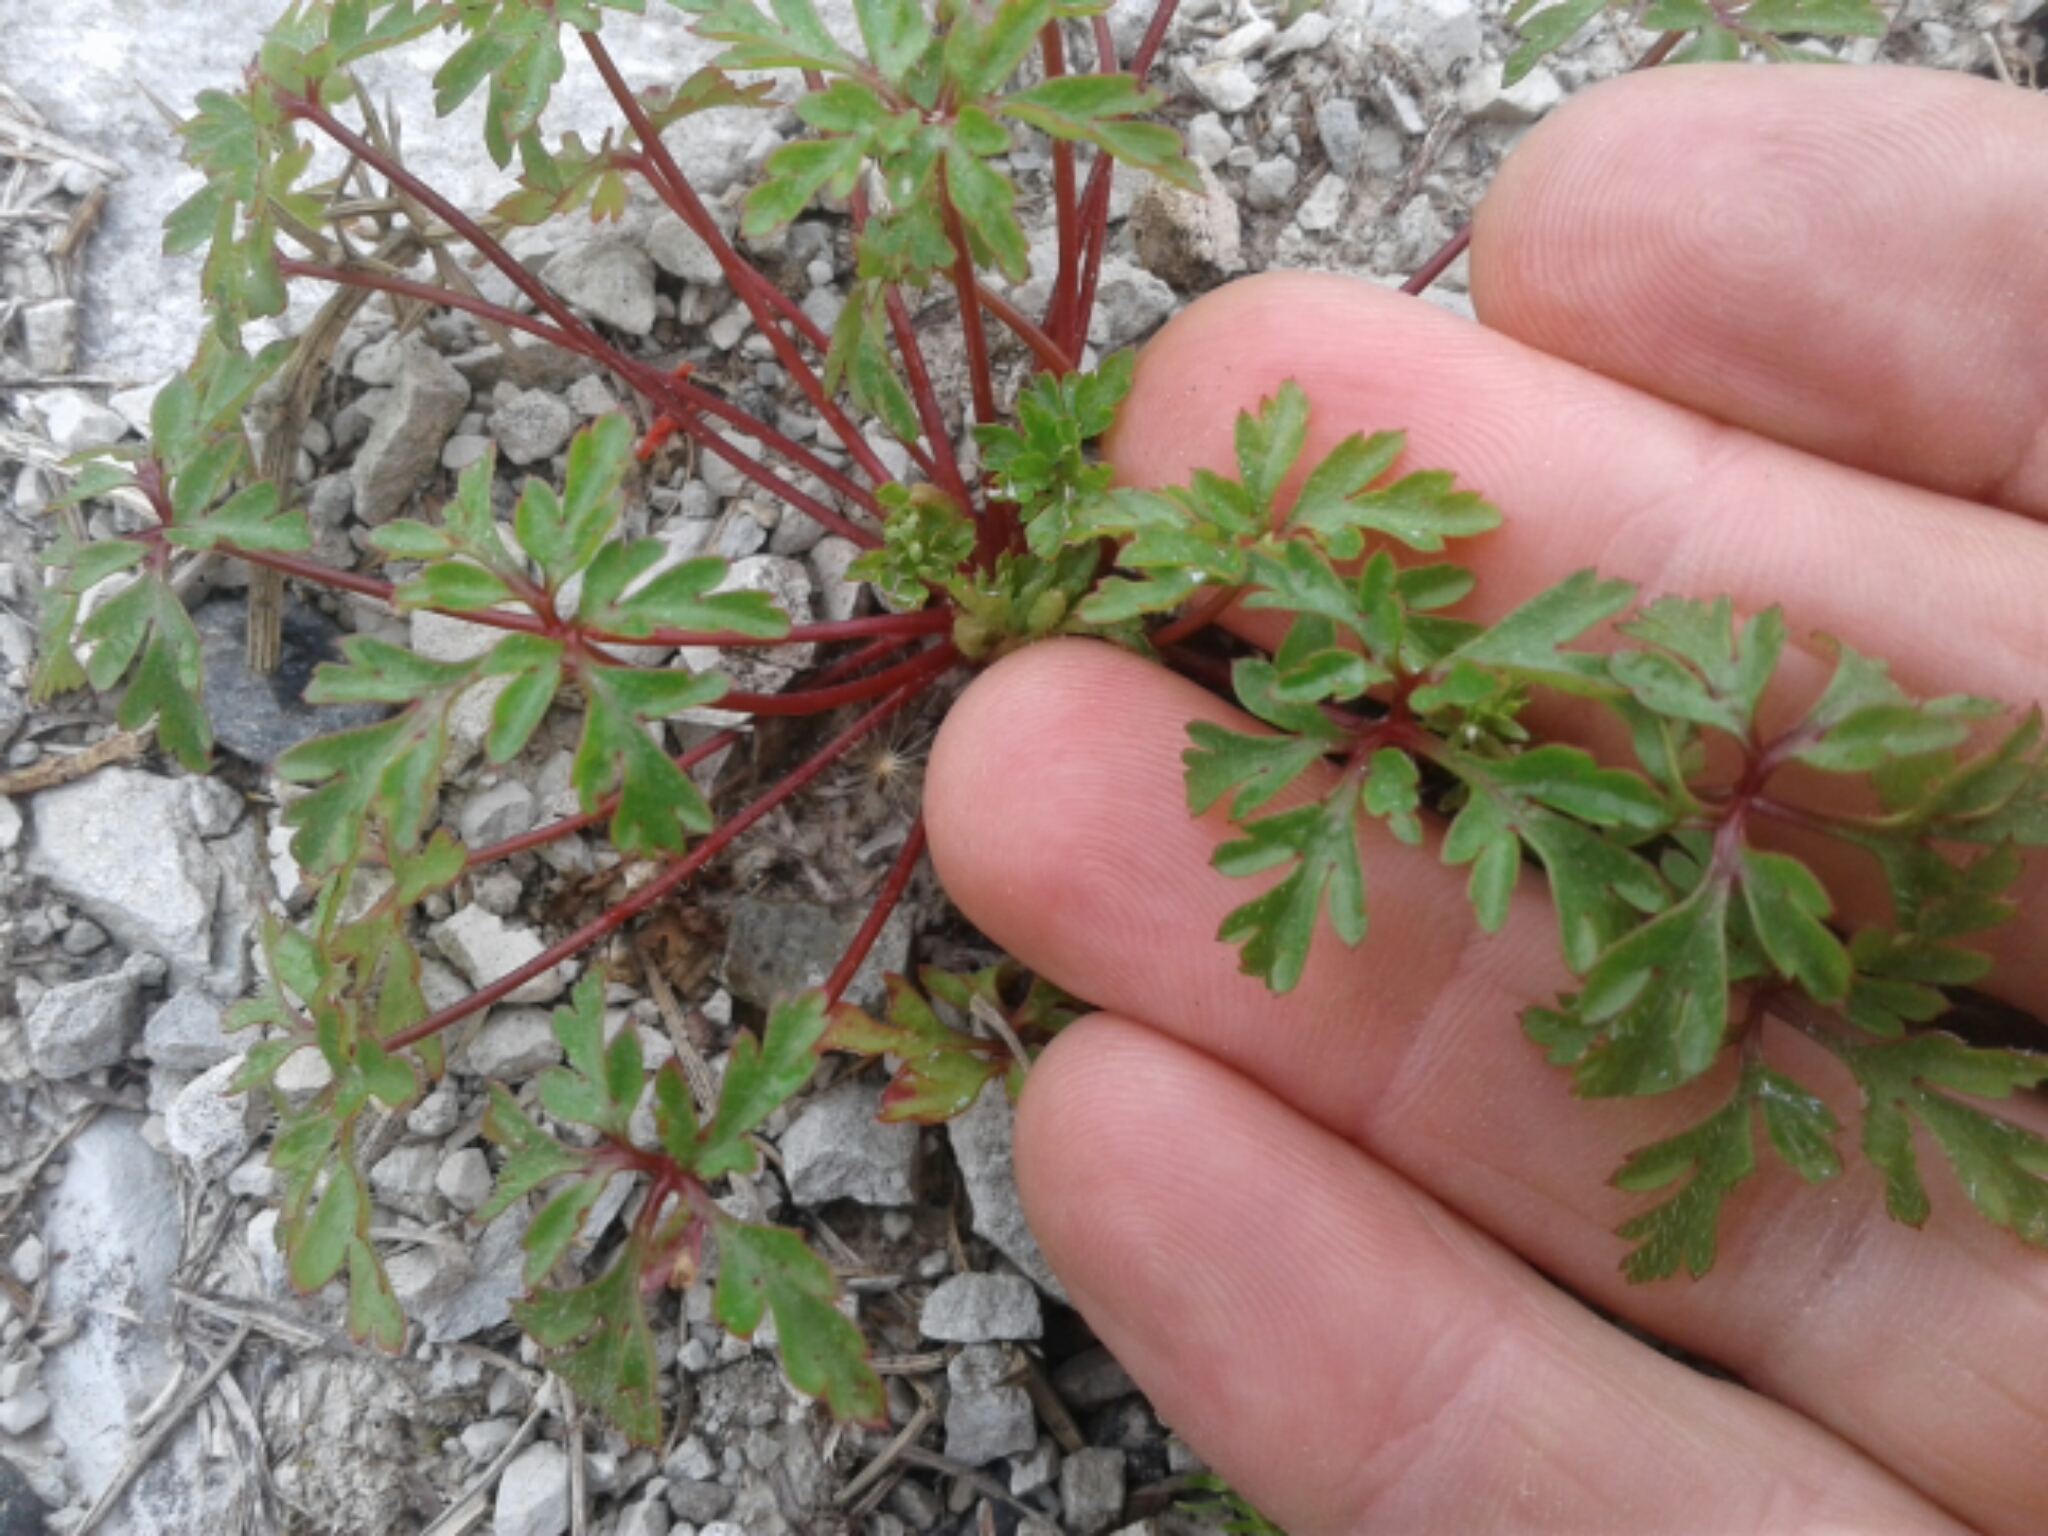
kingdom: Plantae
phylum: Tracheophyta
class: Magnoliopsida
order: Geraniales
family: Geraniaceae
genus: Geranium
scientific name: Geranium robertianum
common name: Herb-robert
